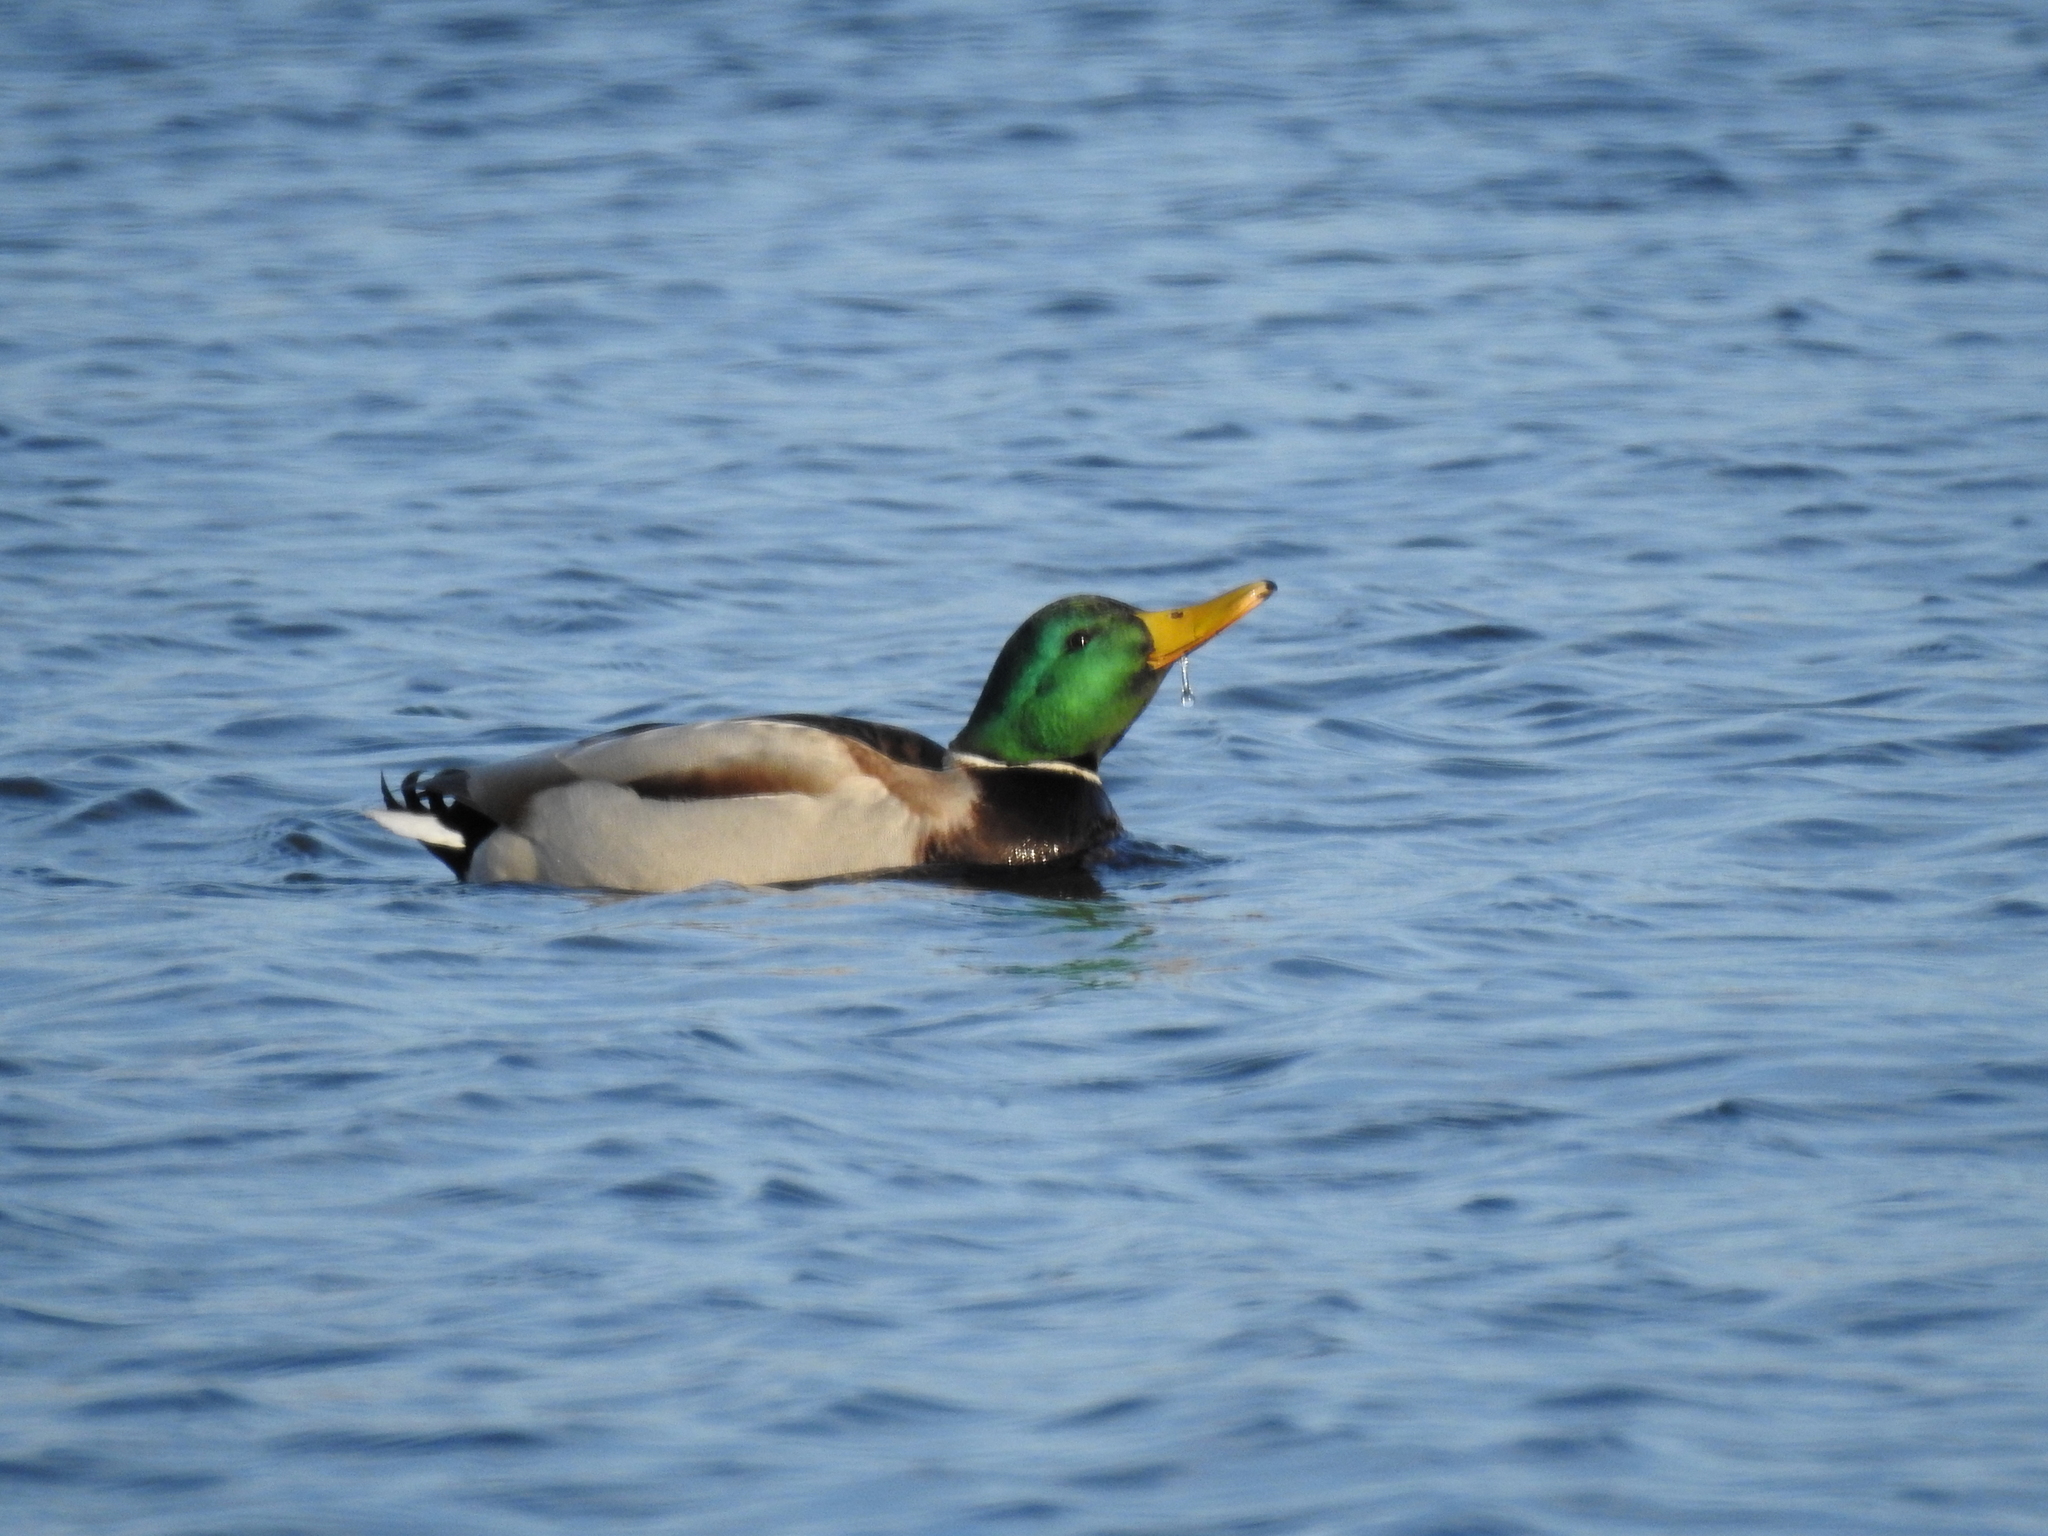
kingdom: Animalia
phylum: Chordata
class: Aves
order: Anseriformes
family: Anatidae
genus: Anas
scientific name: Anas platyrhynchos
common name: Mallard
